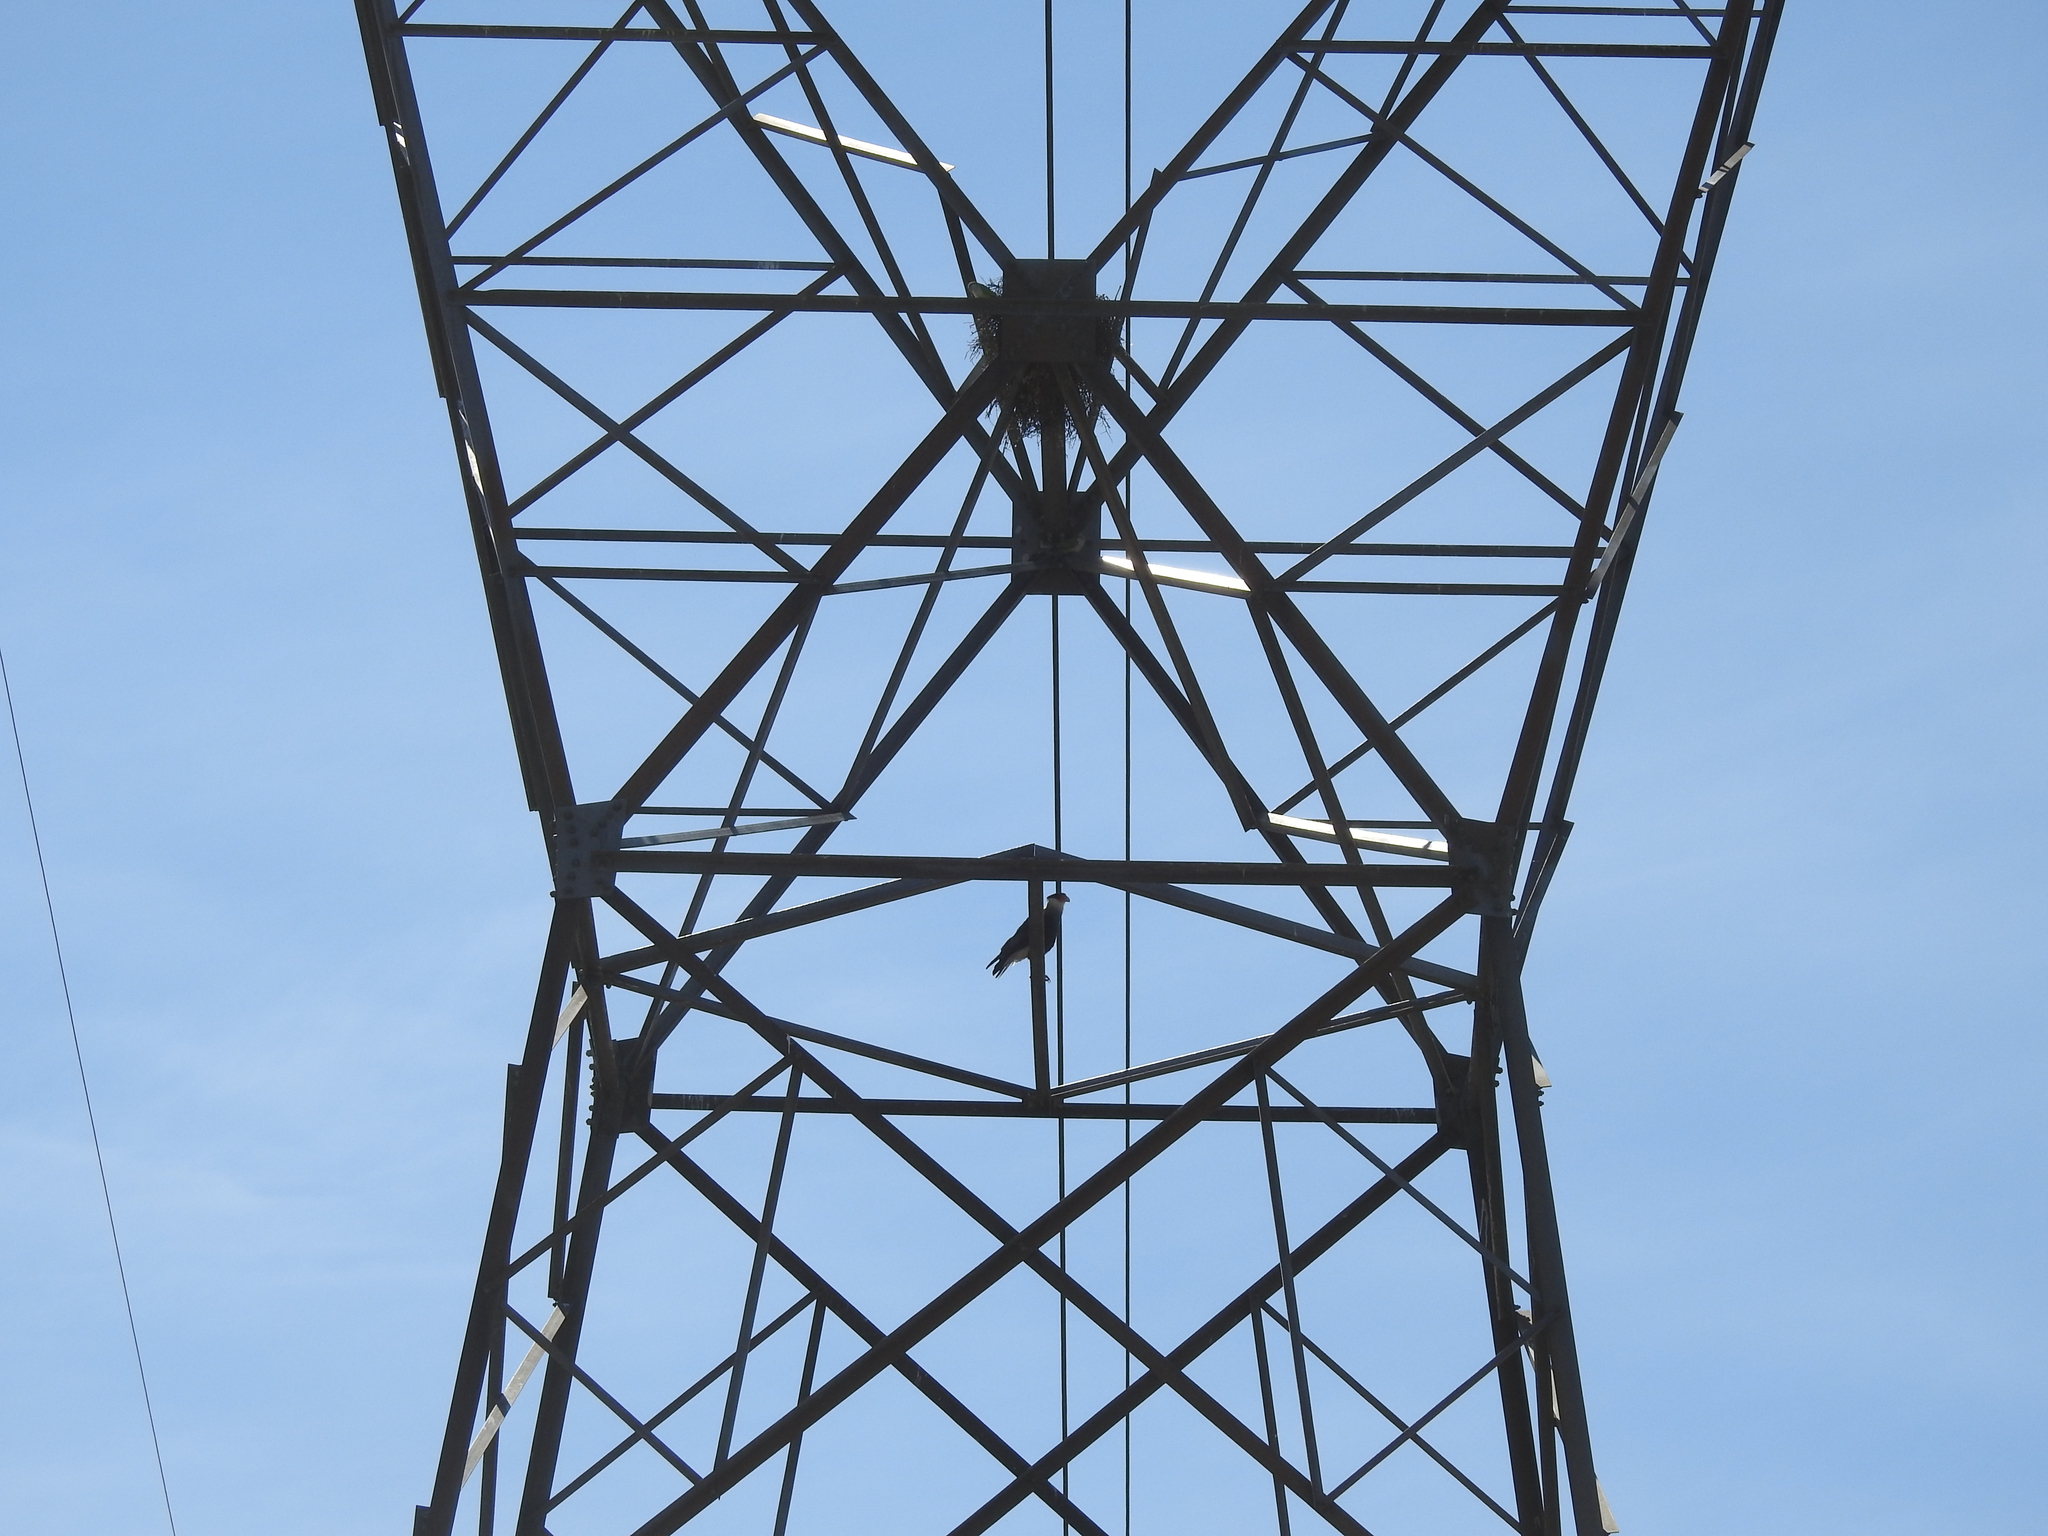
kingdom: Animalia
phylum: Chordata
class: Aves
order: Falconiformes
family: Falconidae
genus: Caracara
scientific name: Caracara plancus
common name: Southern caracara
